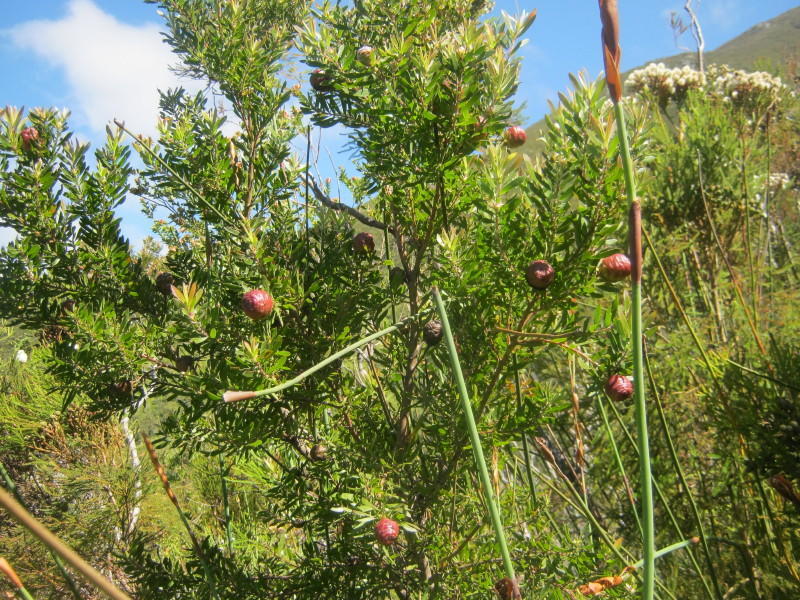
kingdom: Plantae
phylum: Tracheophyta
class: Magnoliopsida
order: Proteales
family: Proteaceae
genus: Leucadendron
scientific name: Leucadendron conicum
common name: Garden route conebush
